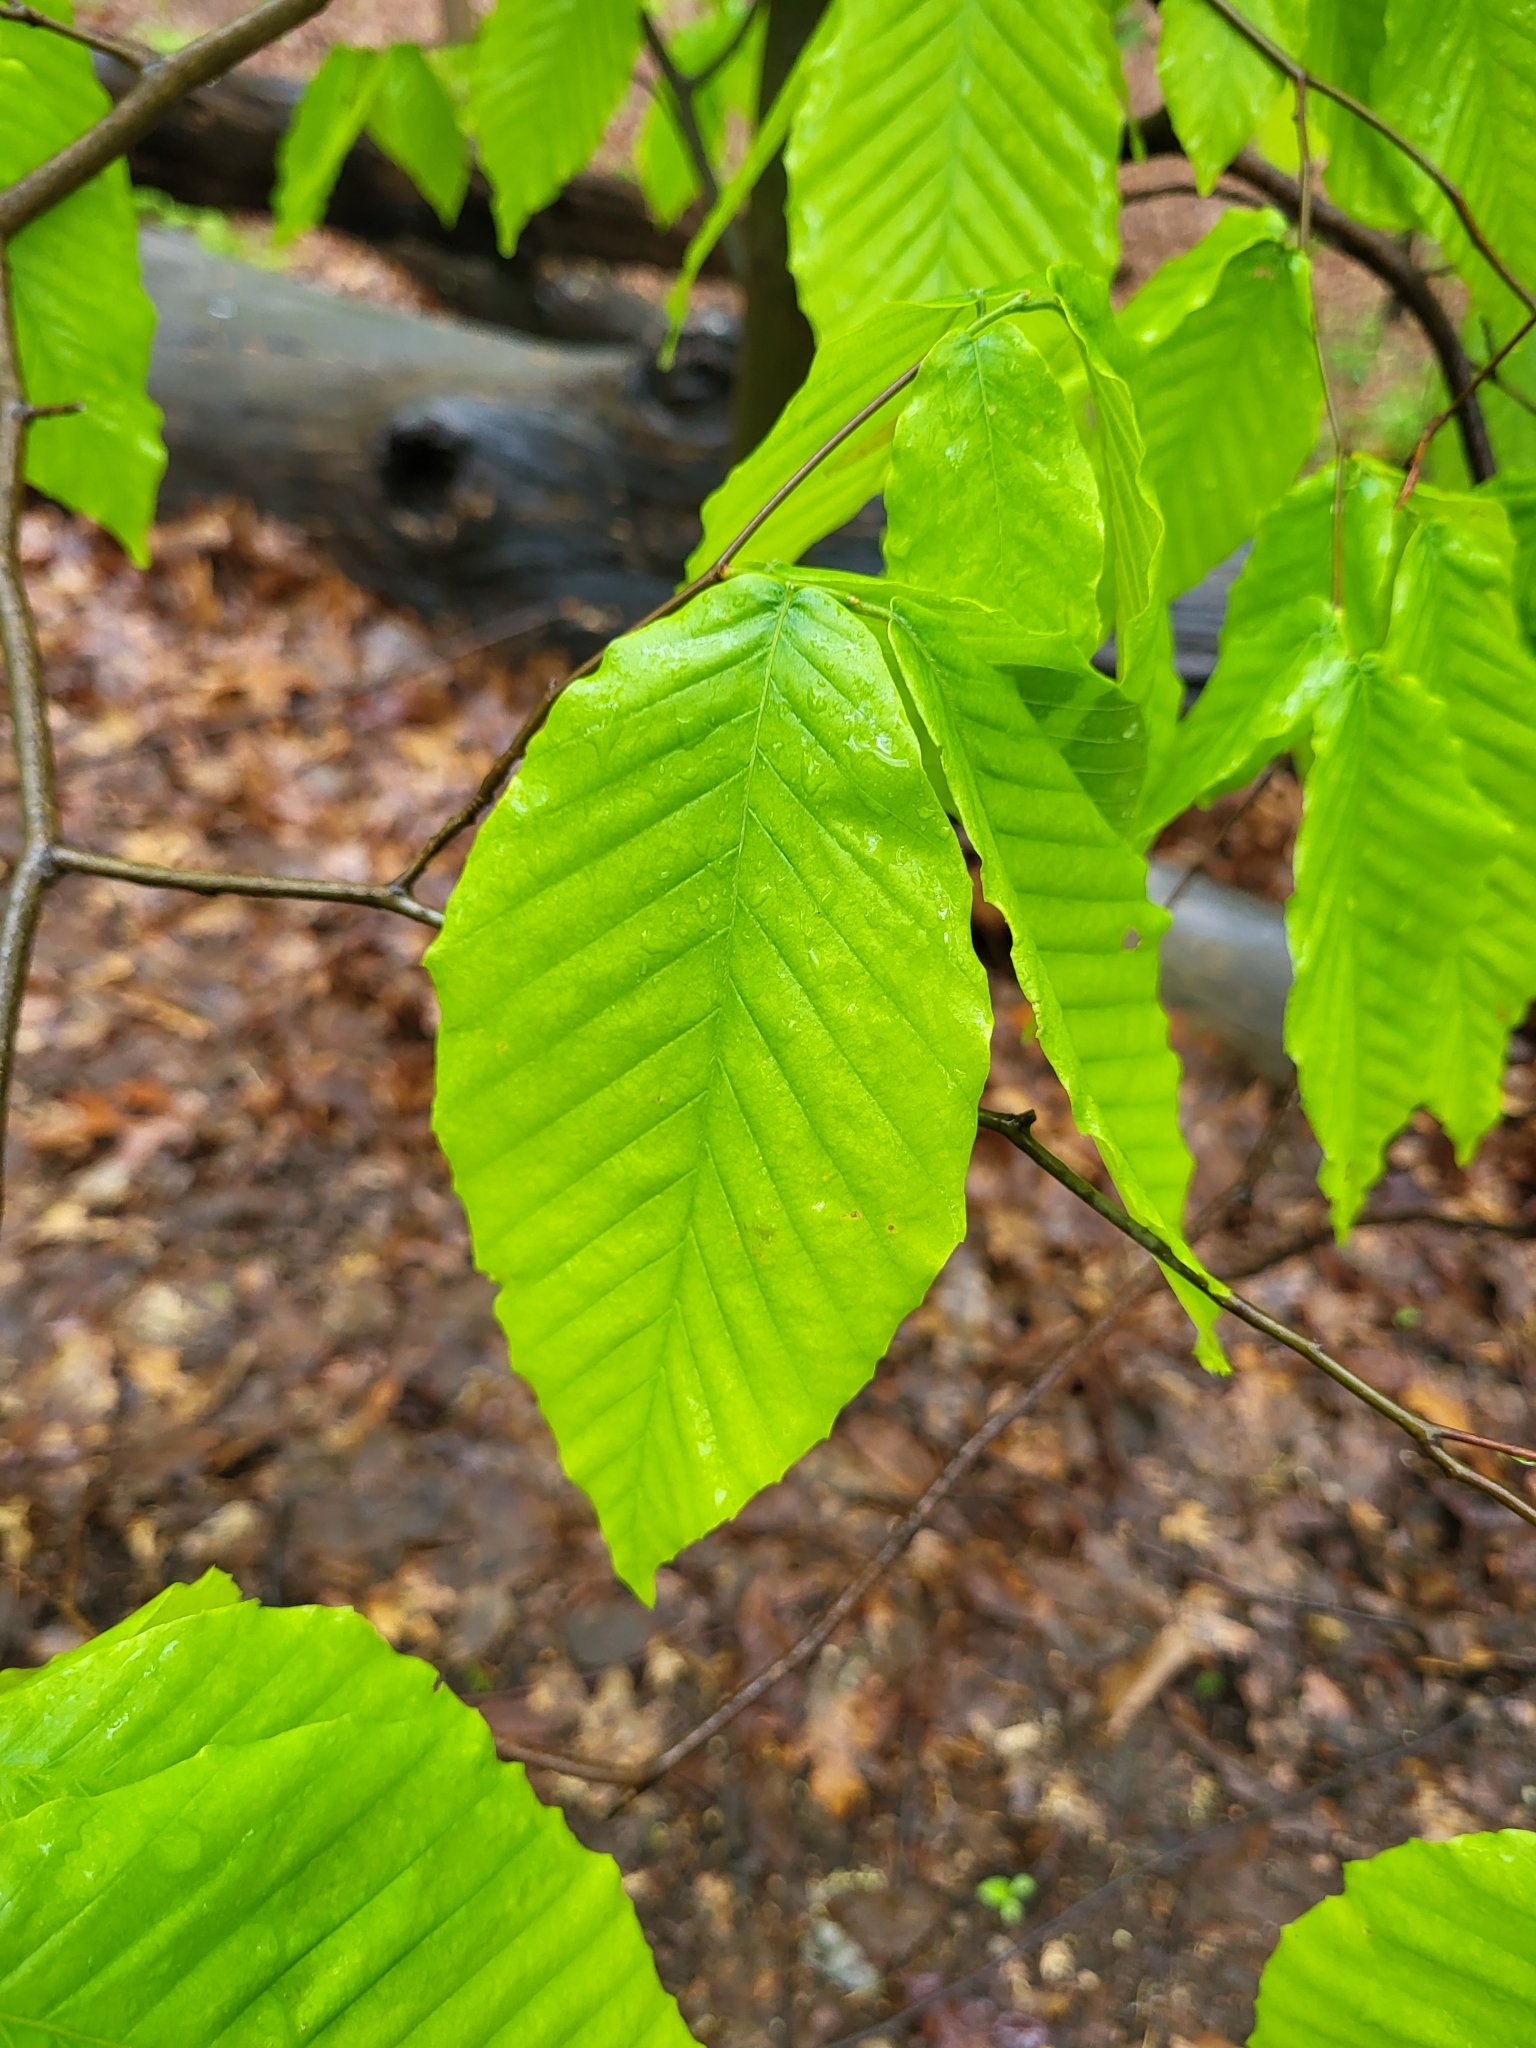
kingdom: Plantae
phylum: Tracheophyta
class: Magnoliopsida
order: Fagales
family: Fagaceae
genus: Fagus
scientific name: Fagus grandifolia
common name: American beech
